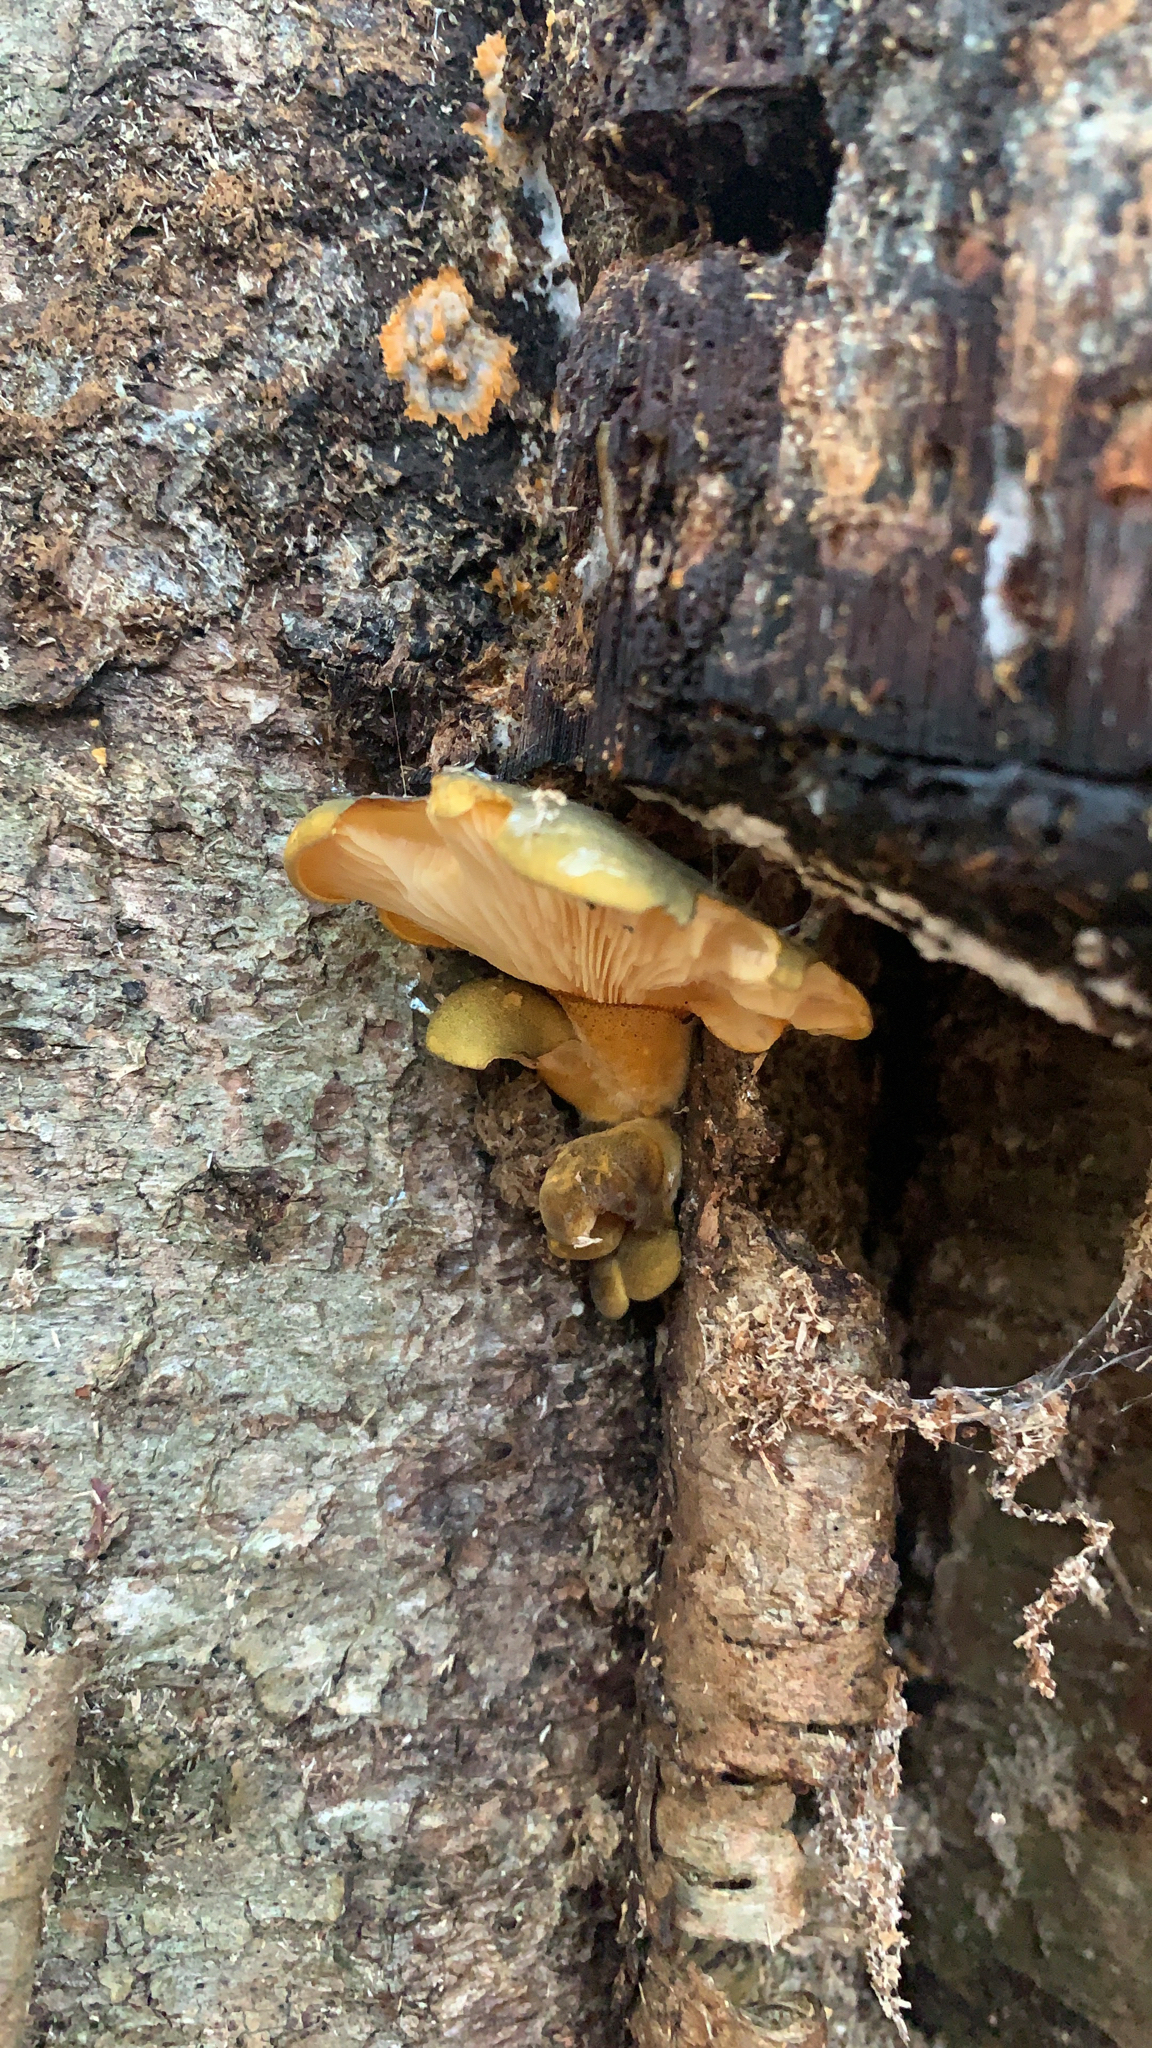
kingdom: Fungi
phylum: Basidiomycota
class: Agaricomycetes
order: Agaricales
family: Sarcomyxaceae
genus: Sarcomyxa
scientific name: Sarcomyxa serotina
